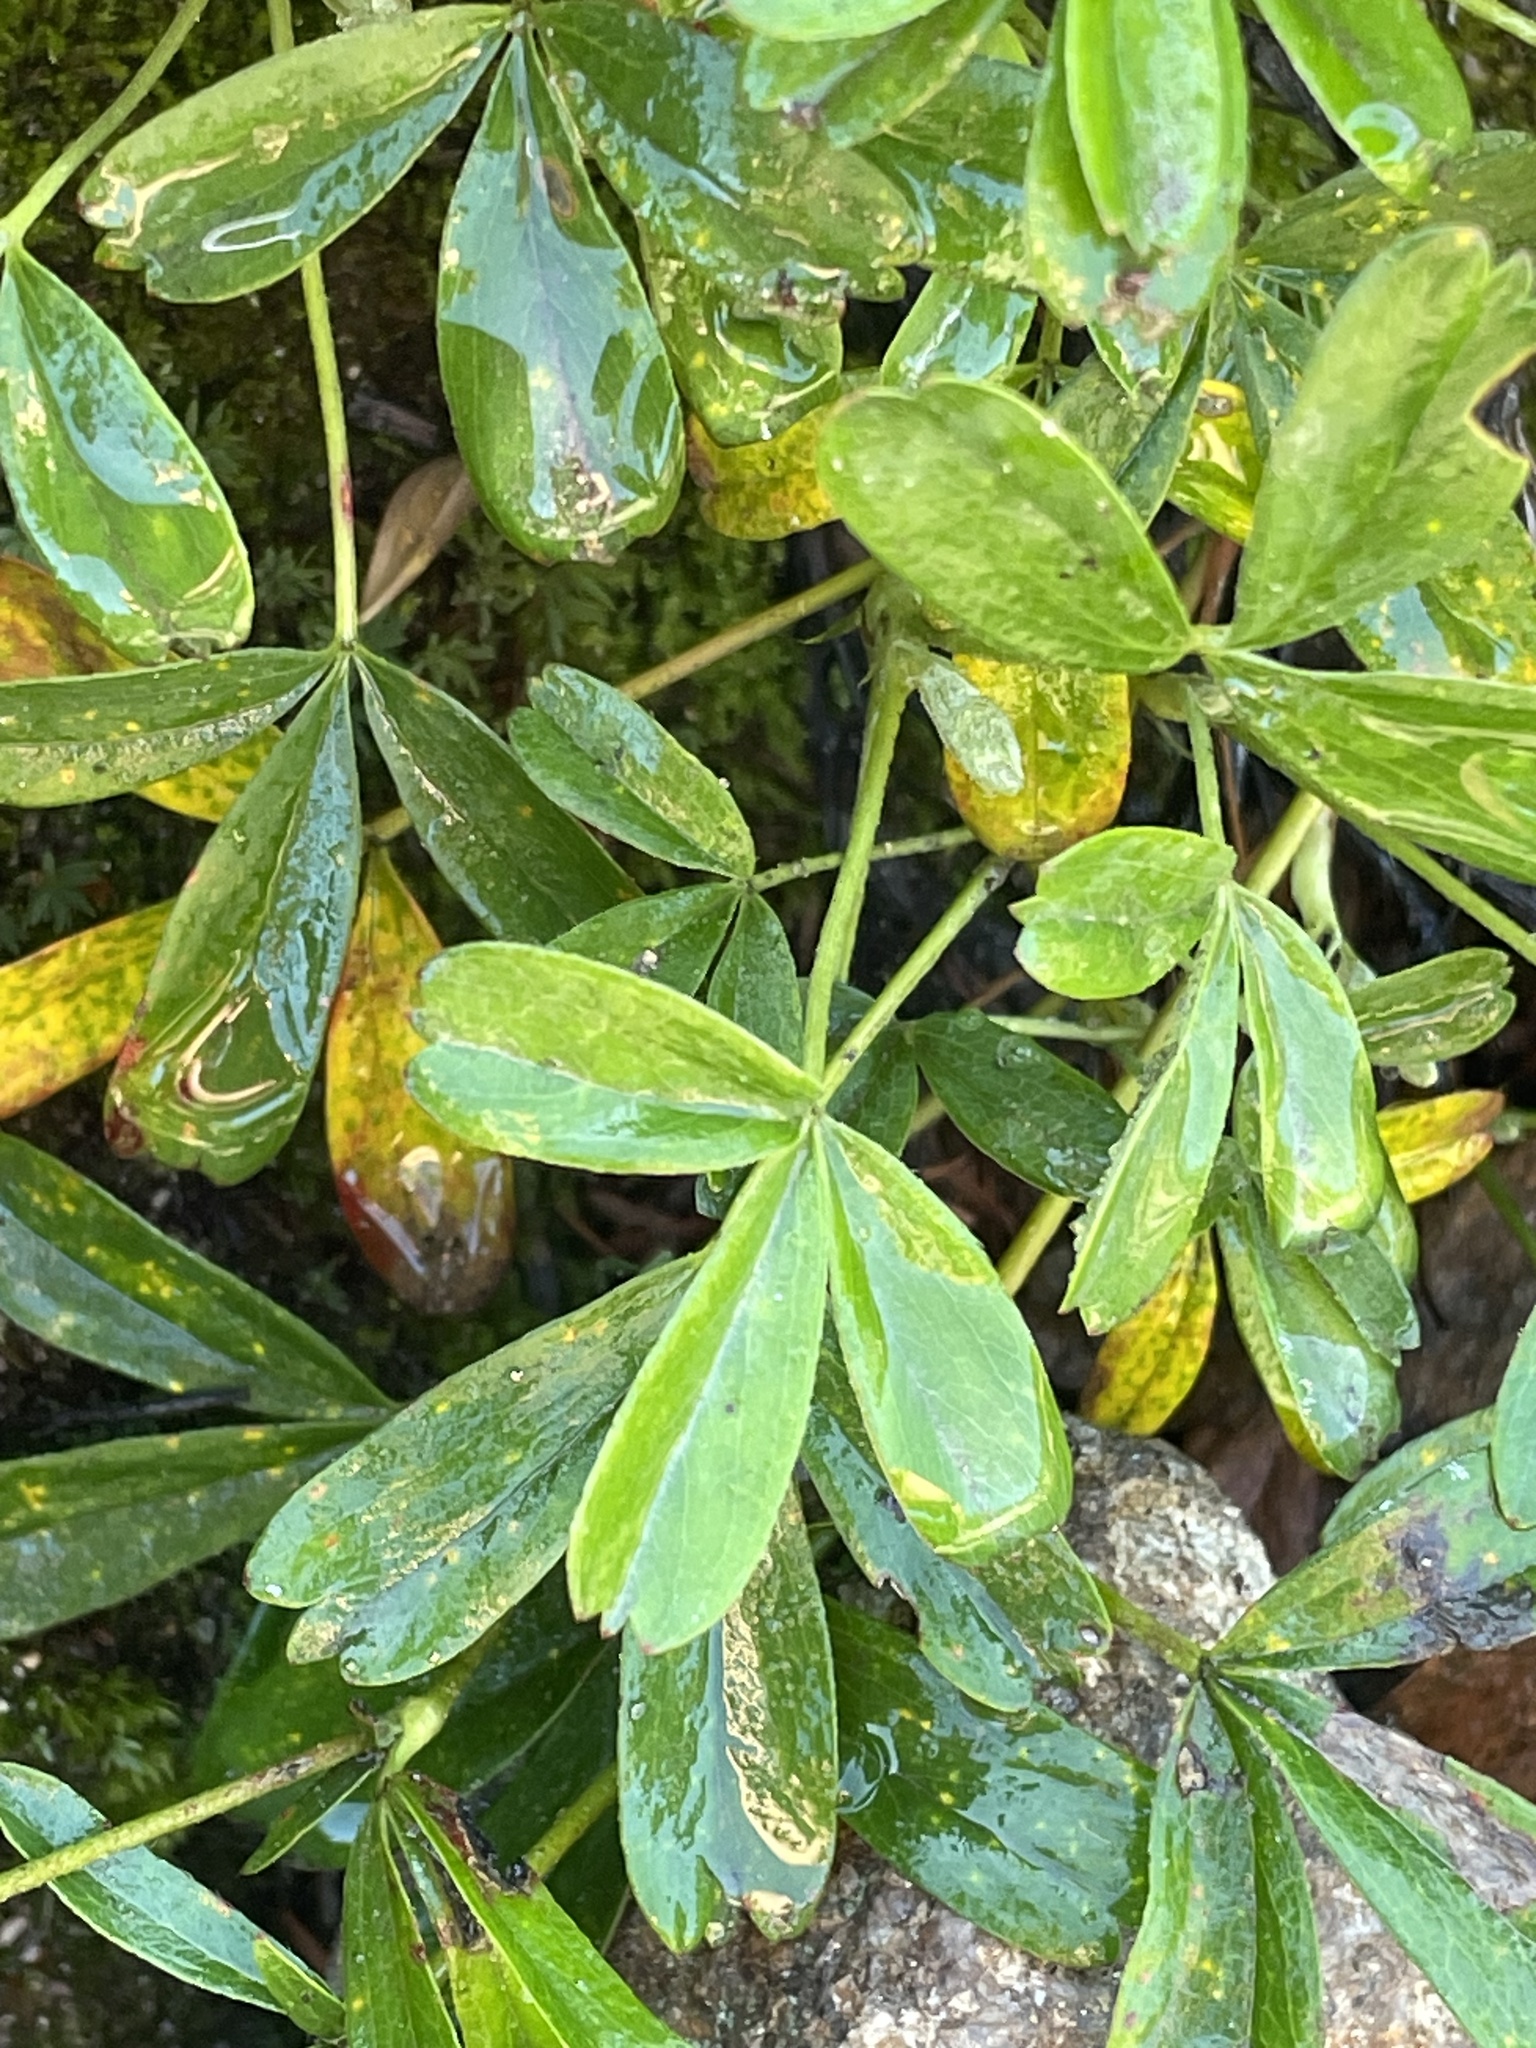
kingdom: Plantae
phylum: Tracheophyta
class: Magnoliopsida
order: Rosales
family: Rosaceae
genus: Sibbaldia
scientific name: Sibbaldia tridentata
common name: Three-toothed cinquefoil
